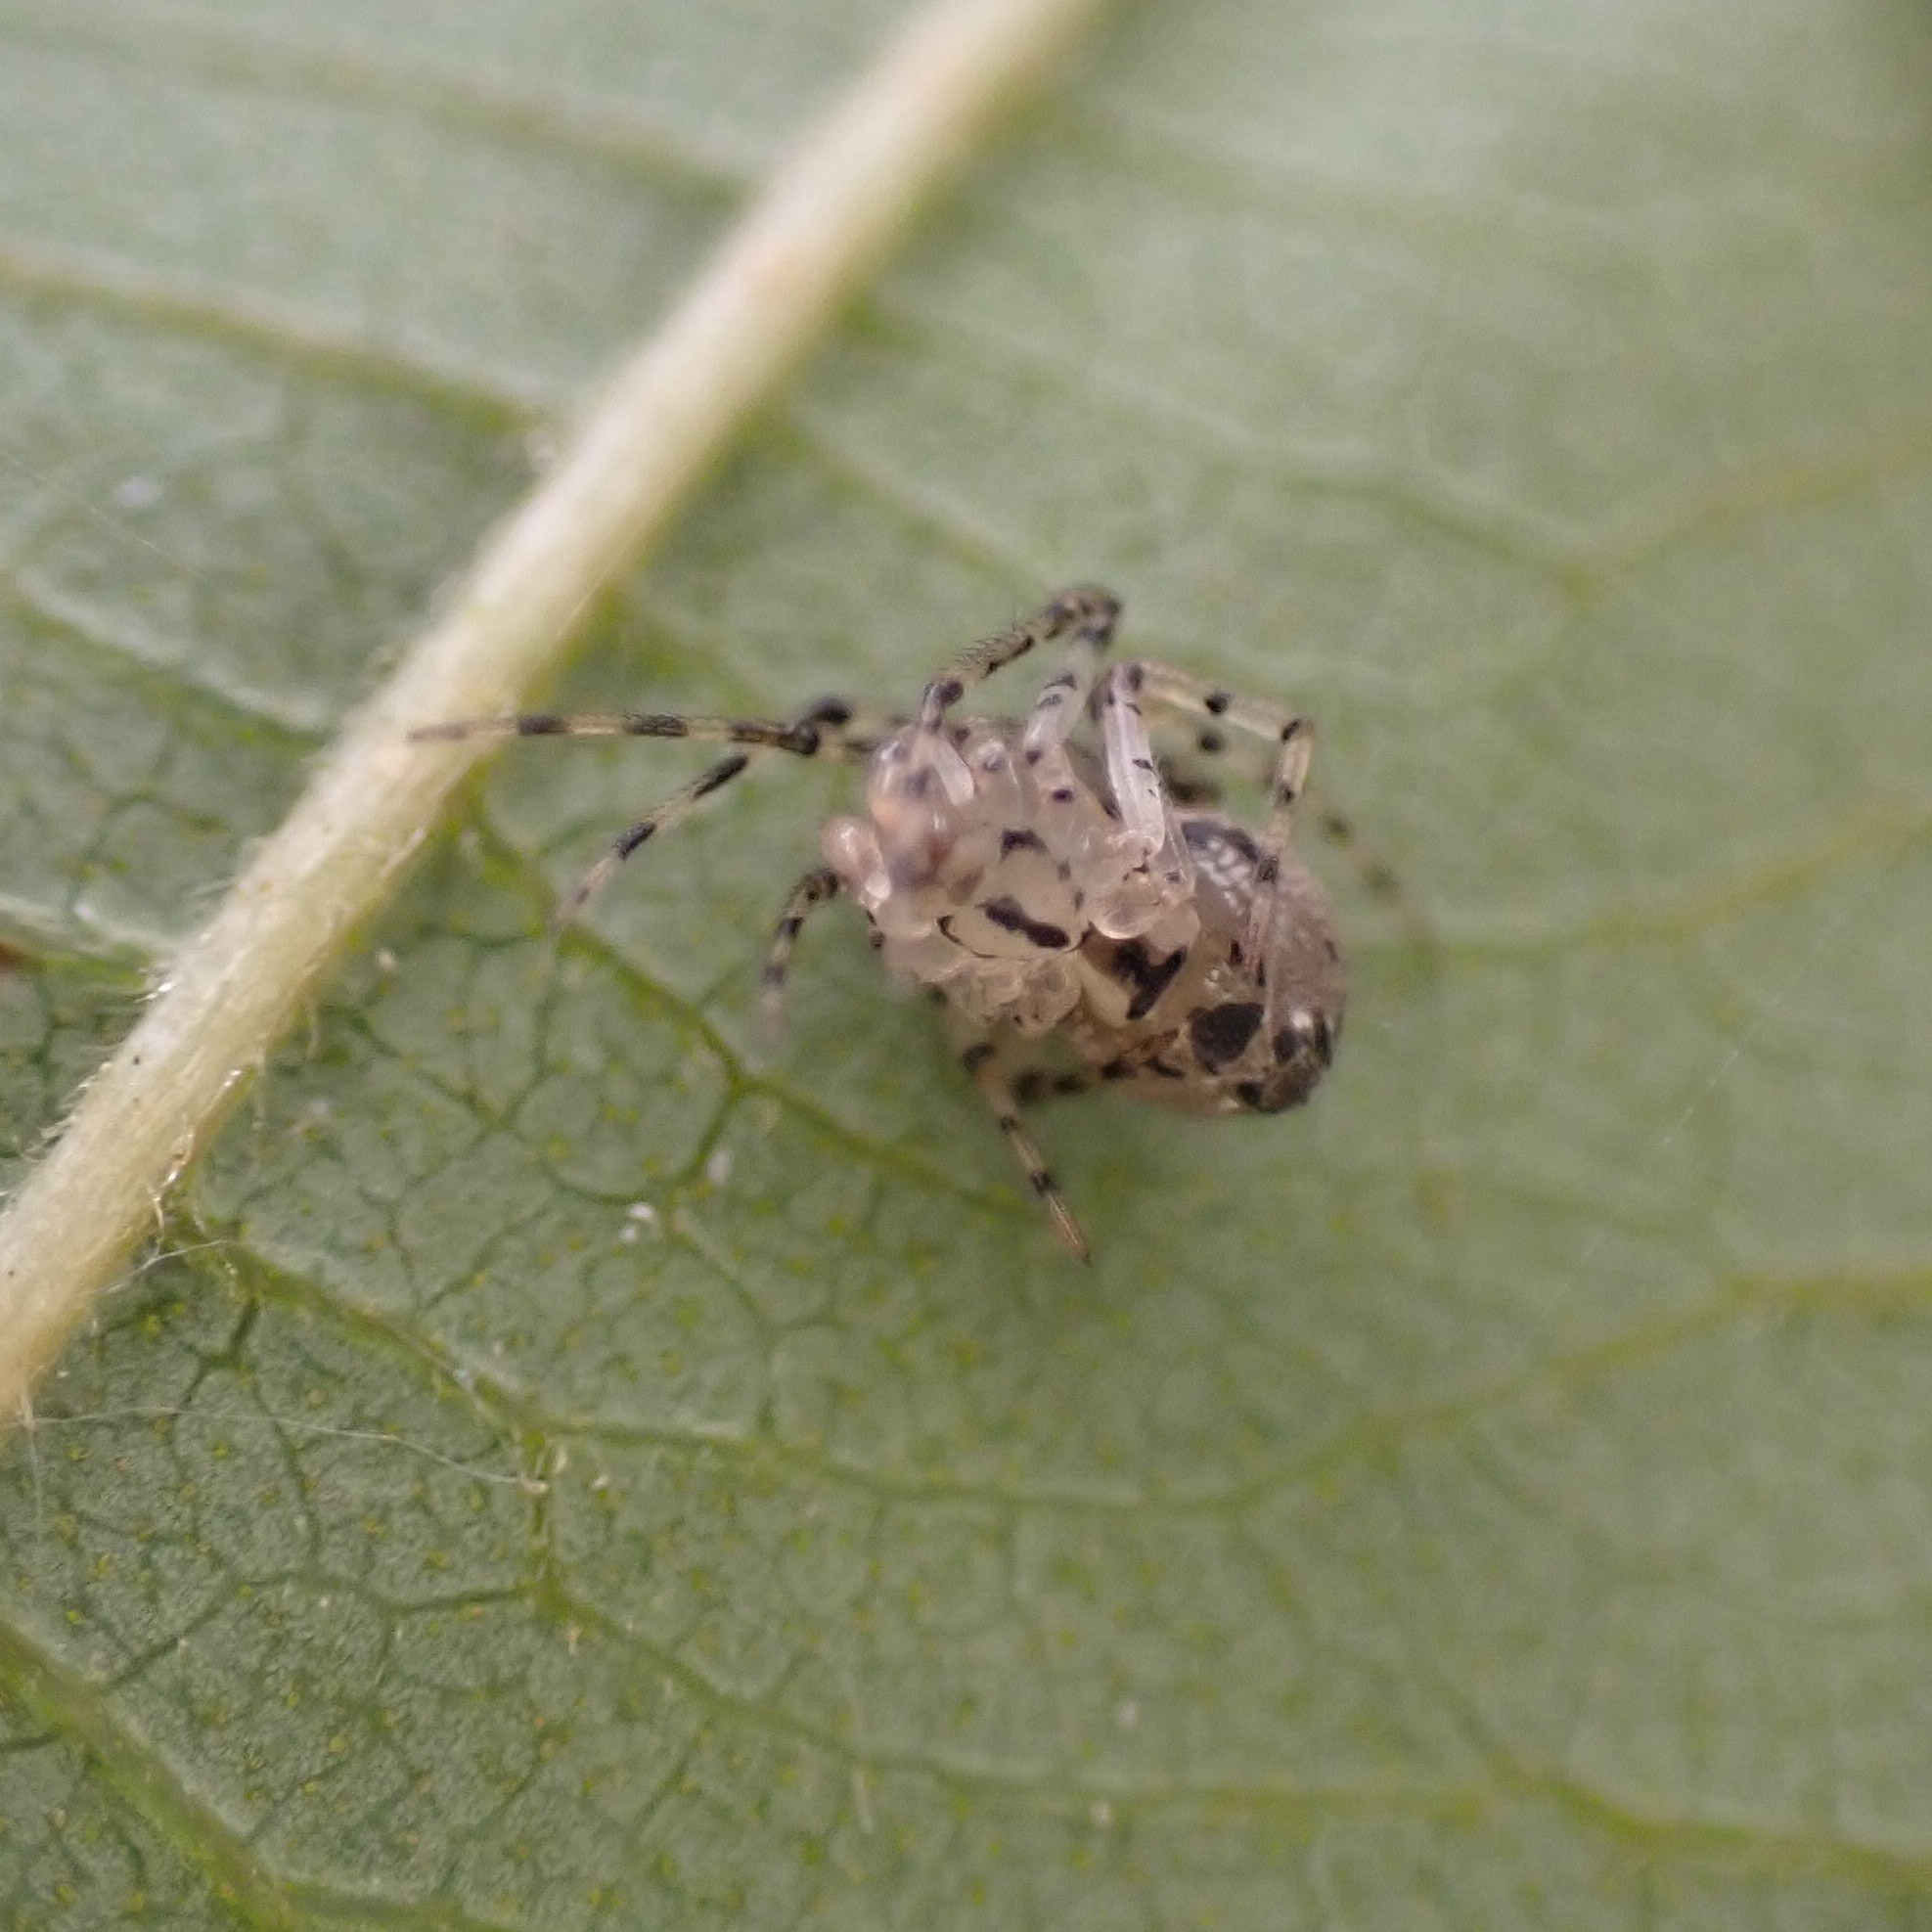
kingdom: Animalia
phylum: Arthropoda
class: Arachnida
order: Araneae
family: Theridiidae
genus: Platnickina
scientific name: Platnickina tincta
